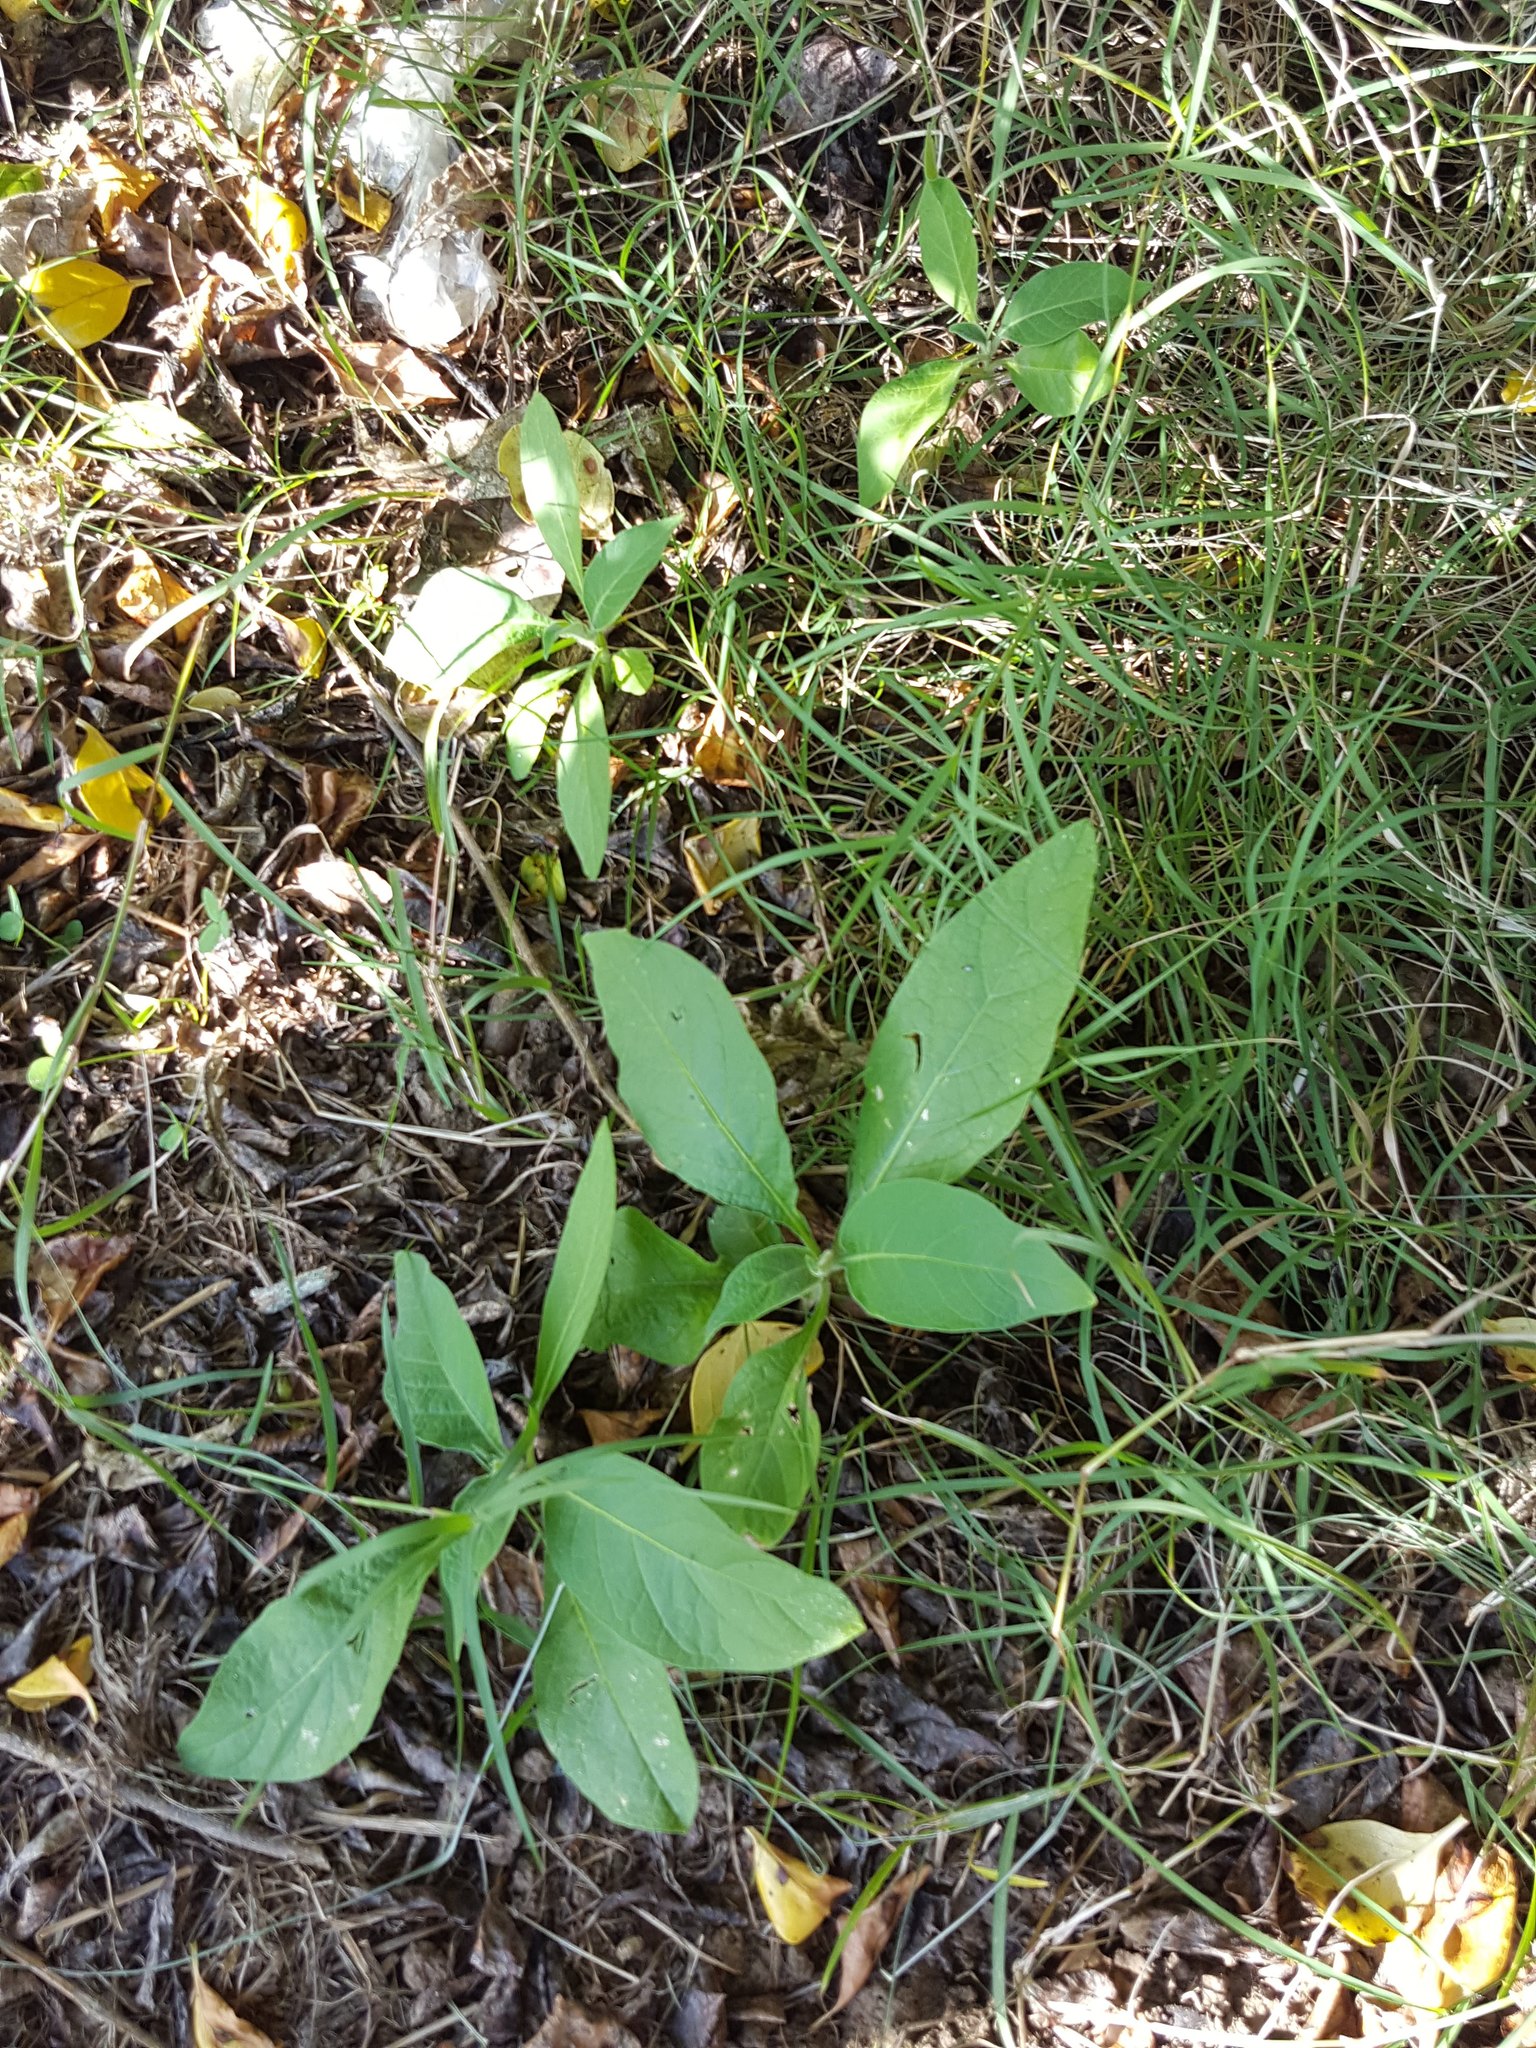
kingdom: Plantae
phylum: Tracheophyta
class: Magnoliopsida
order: Solanales
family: Solanaceae
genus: Solanum
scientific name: Solanum mauritianum
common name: Earleaf nightshade
